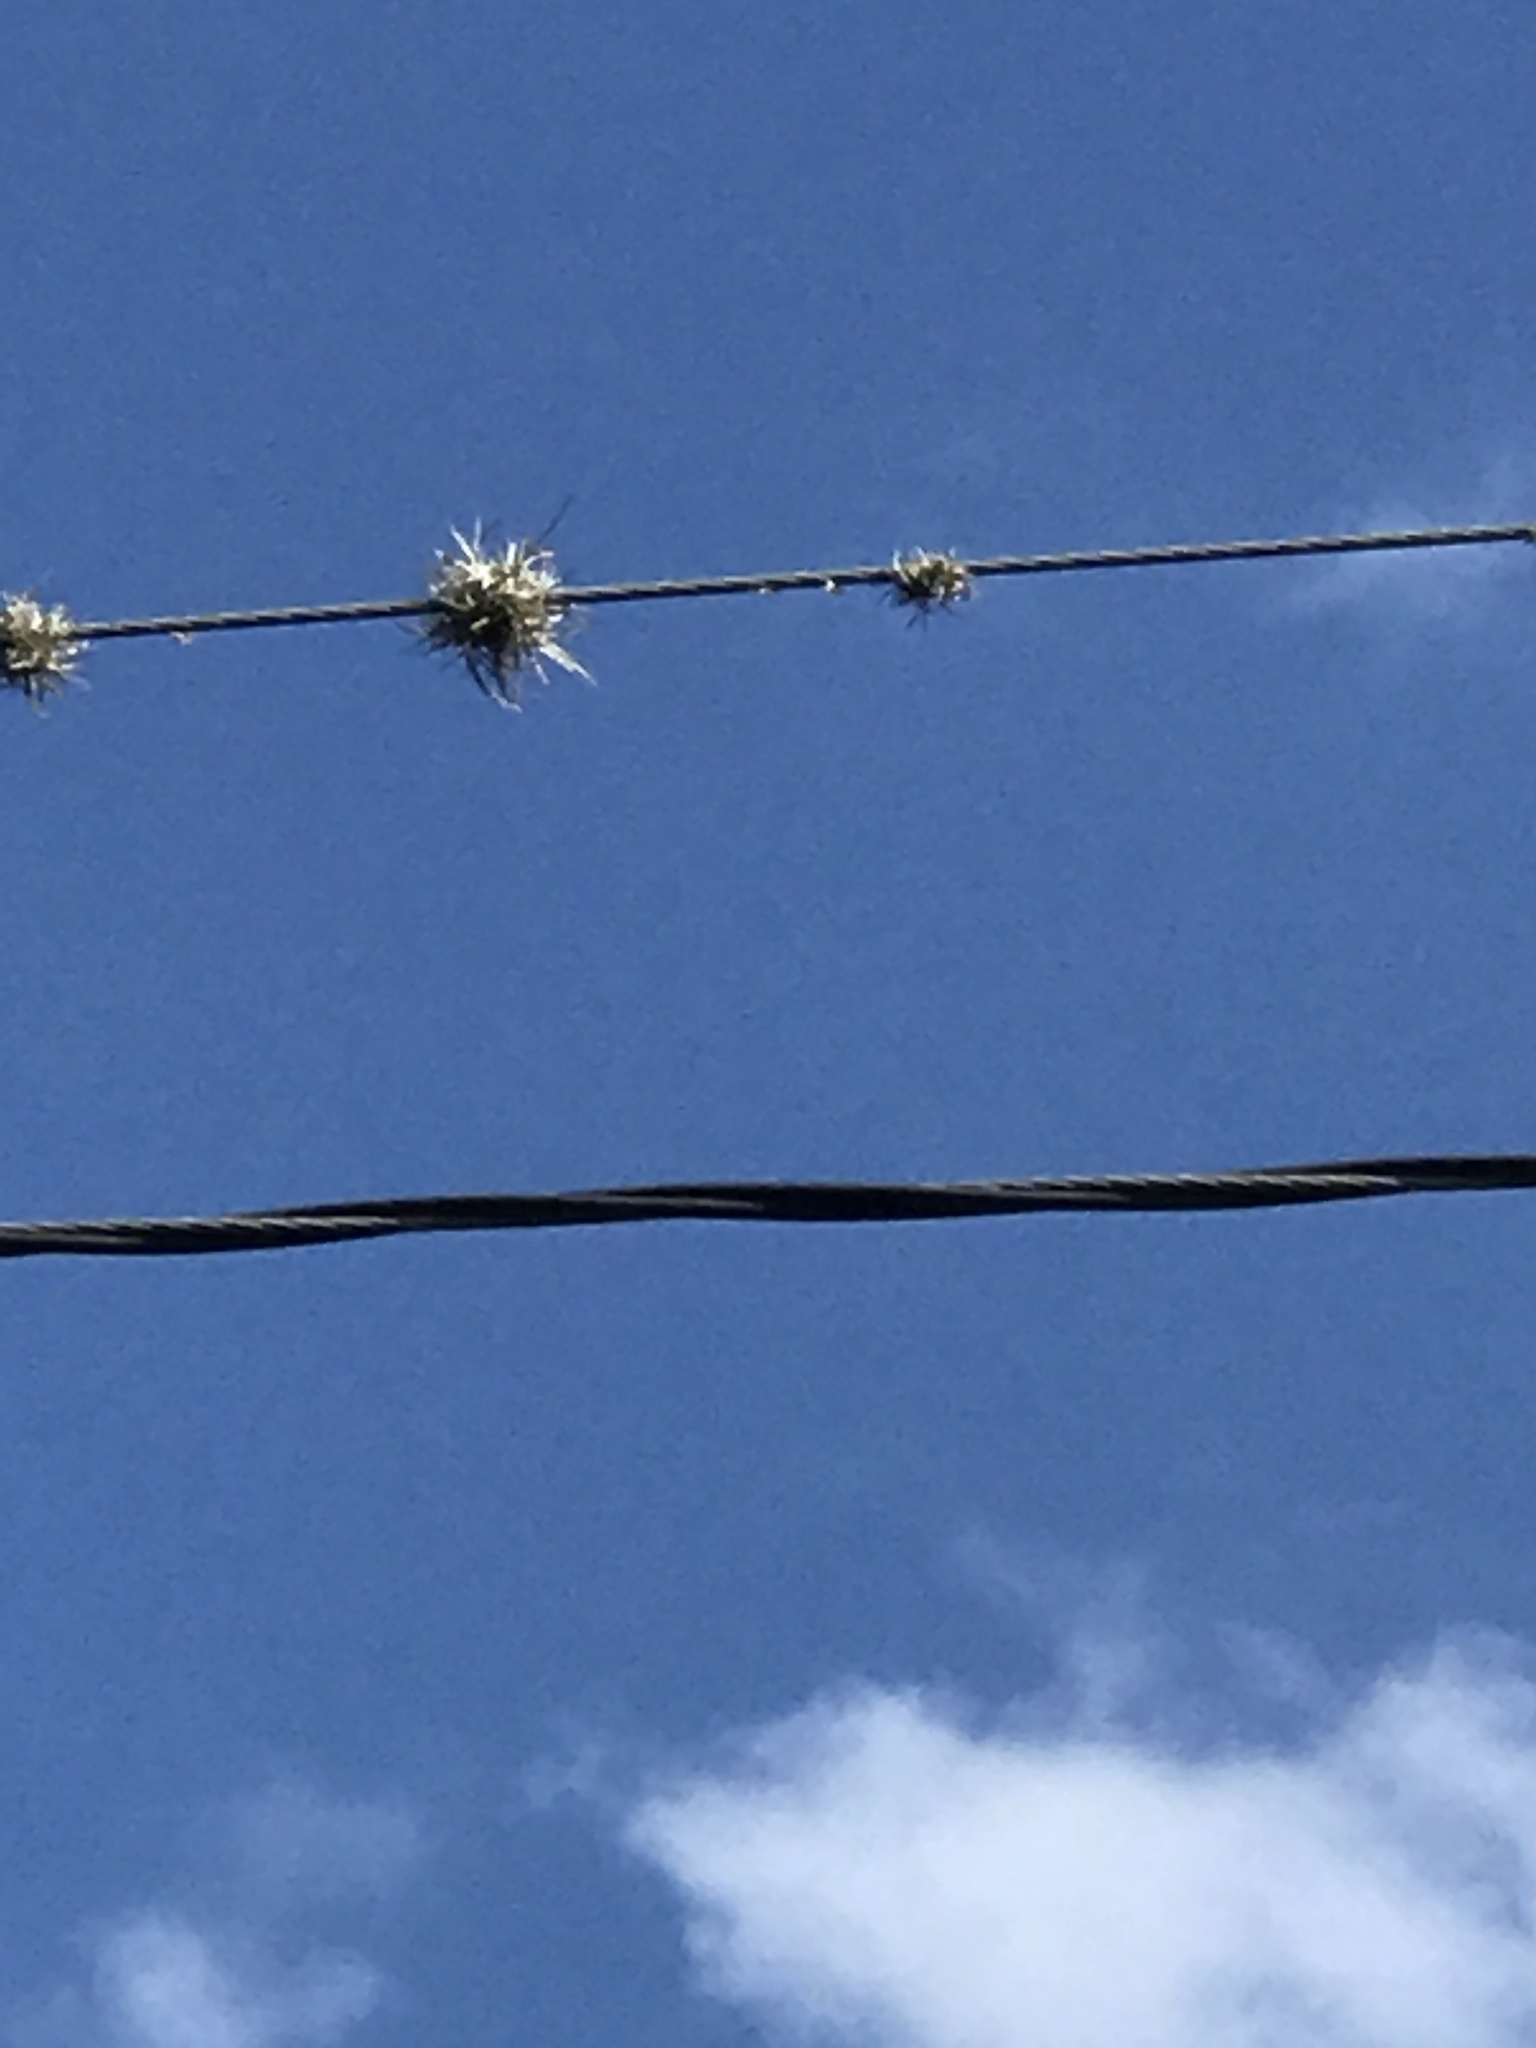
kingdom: Plantae
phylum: Tracheophyta
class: Liliopsida
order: Poales
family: Bromeliaceae
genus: Tillandsia
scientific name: Tillandsia recurvata
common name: Small ballmoss
